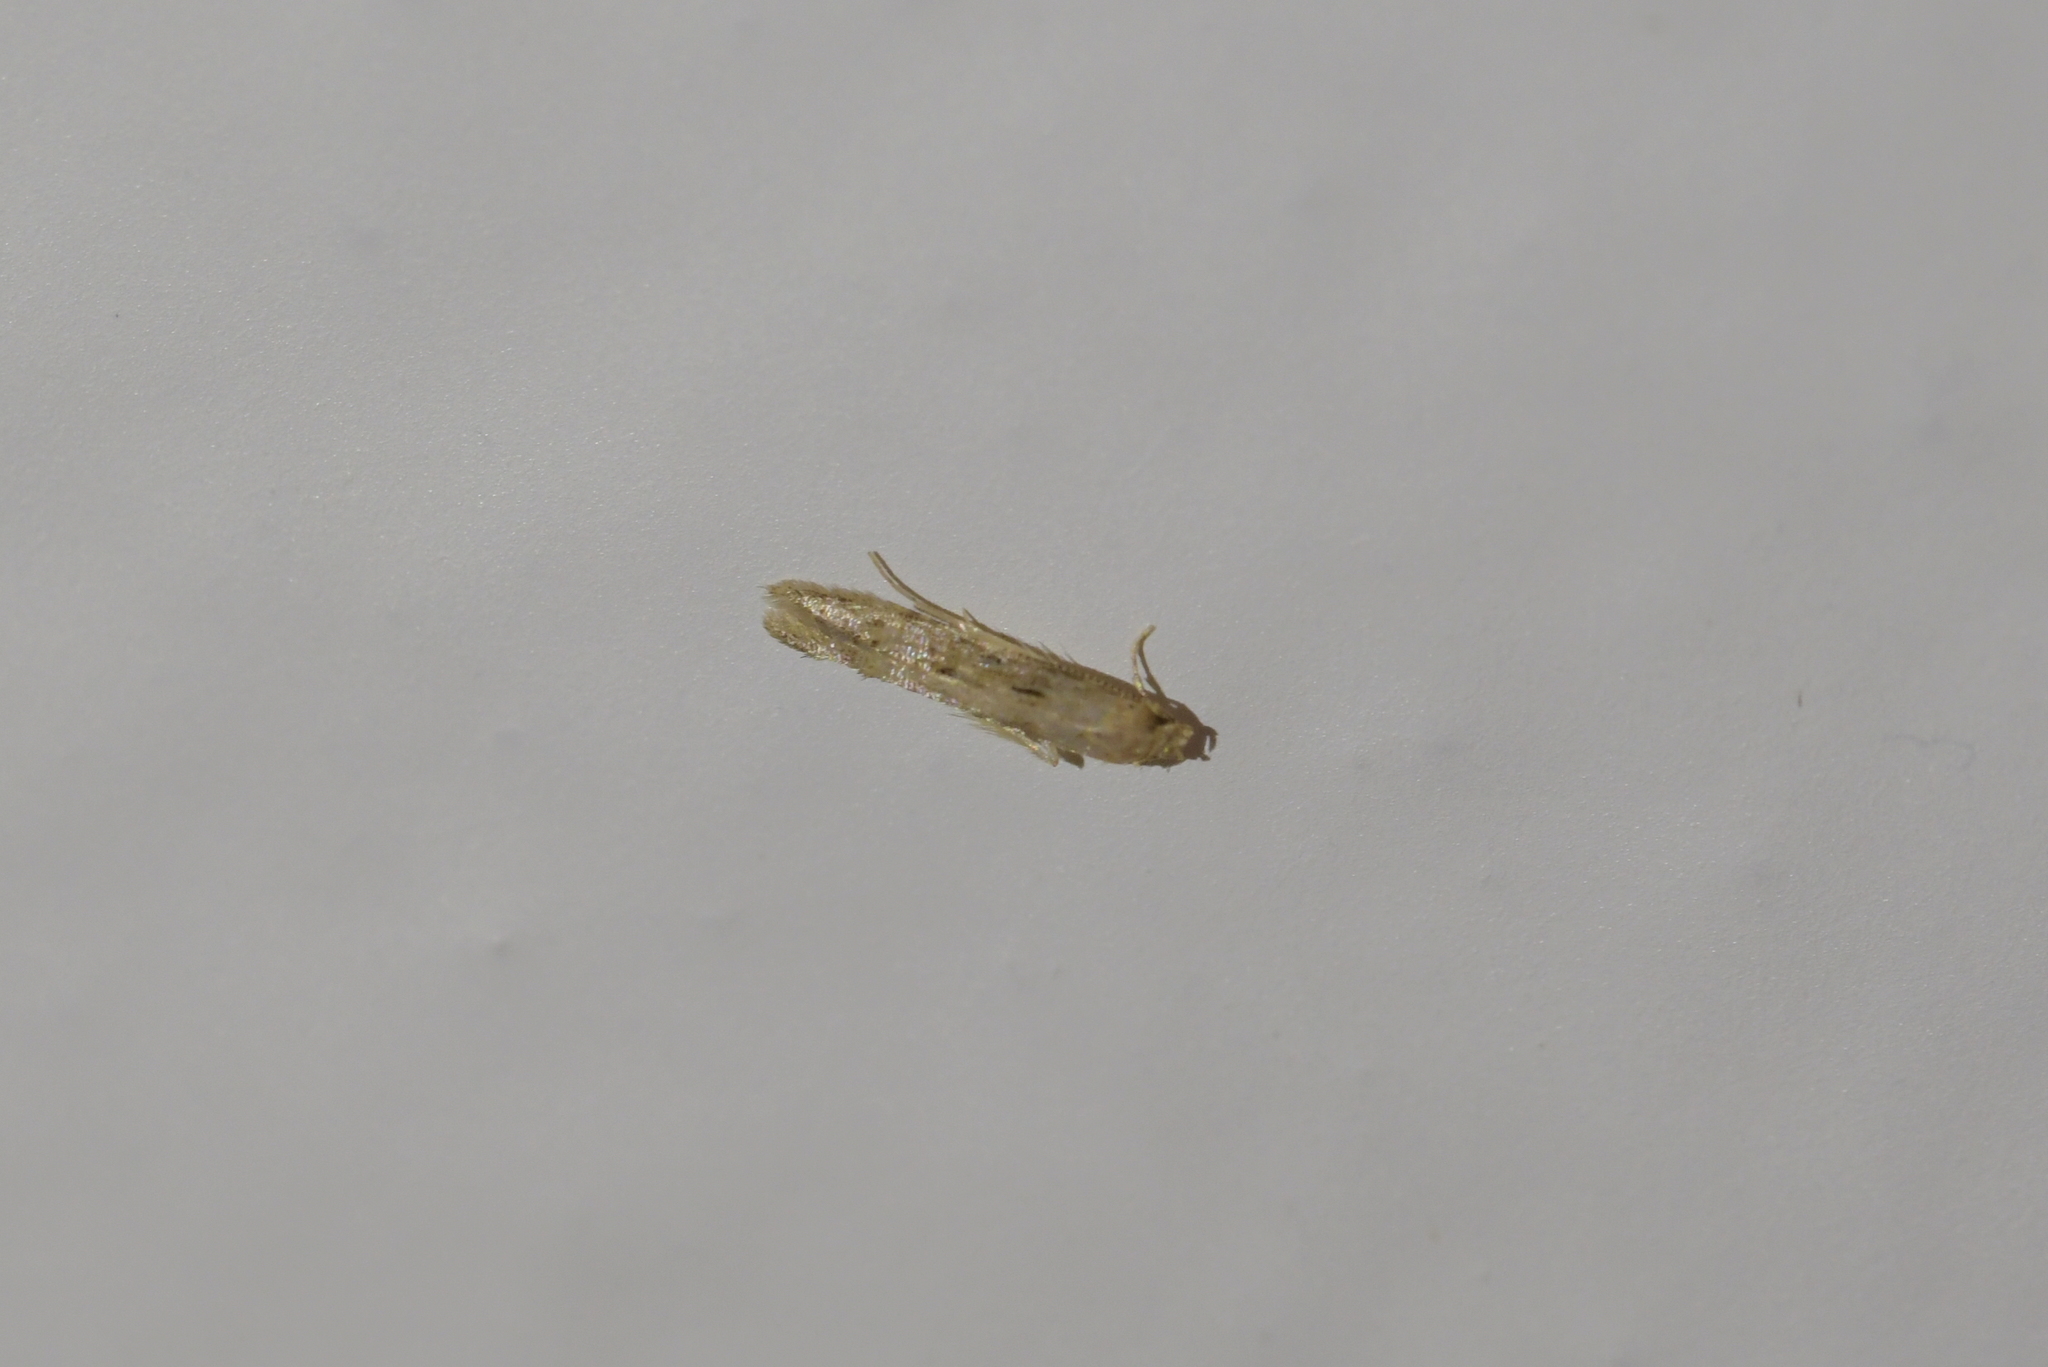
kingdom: Animalia
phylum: Arthropoda
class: Insecta
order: Lepidoptera
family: Elachistidae
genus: Microcolona
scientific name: Microcolona limodes
